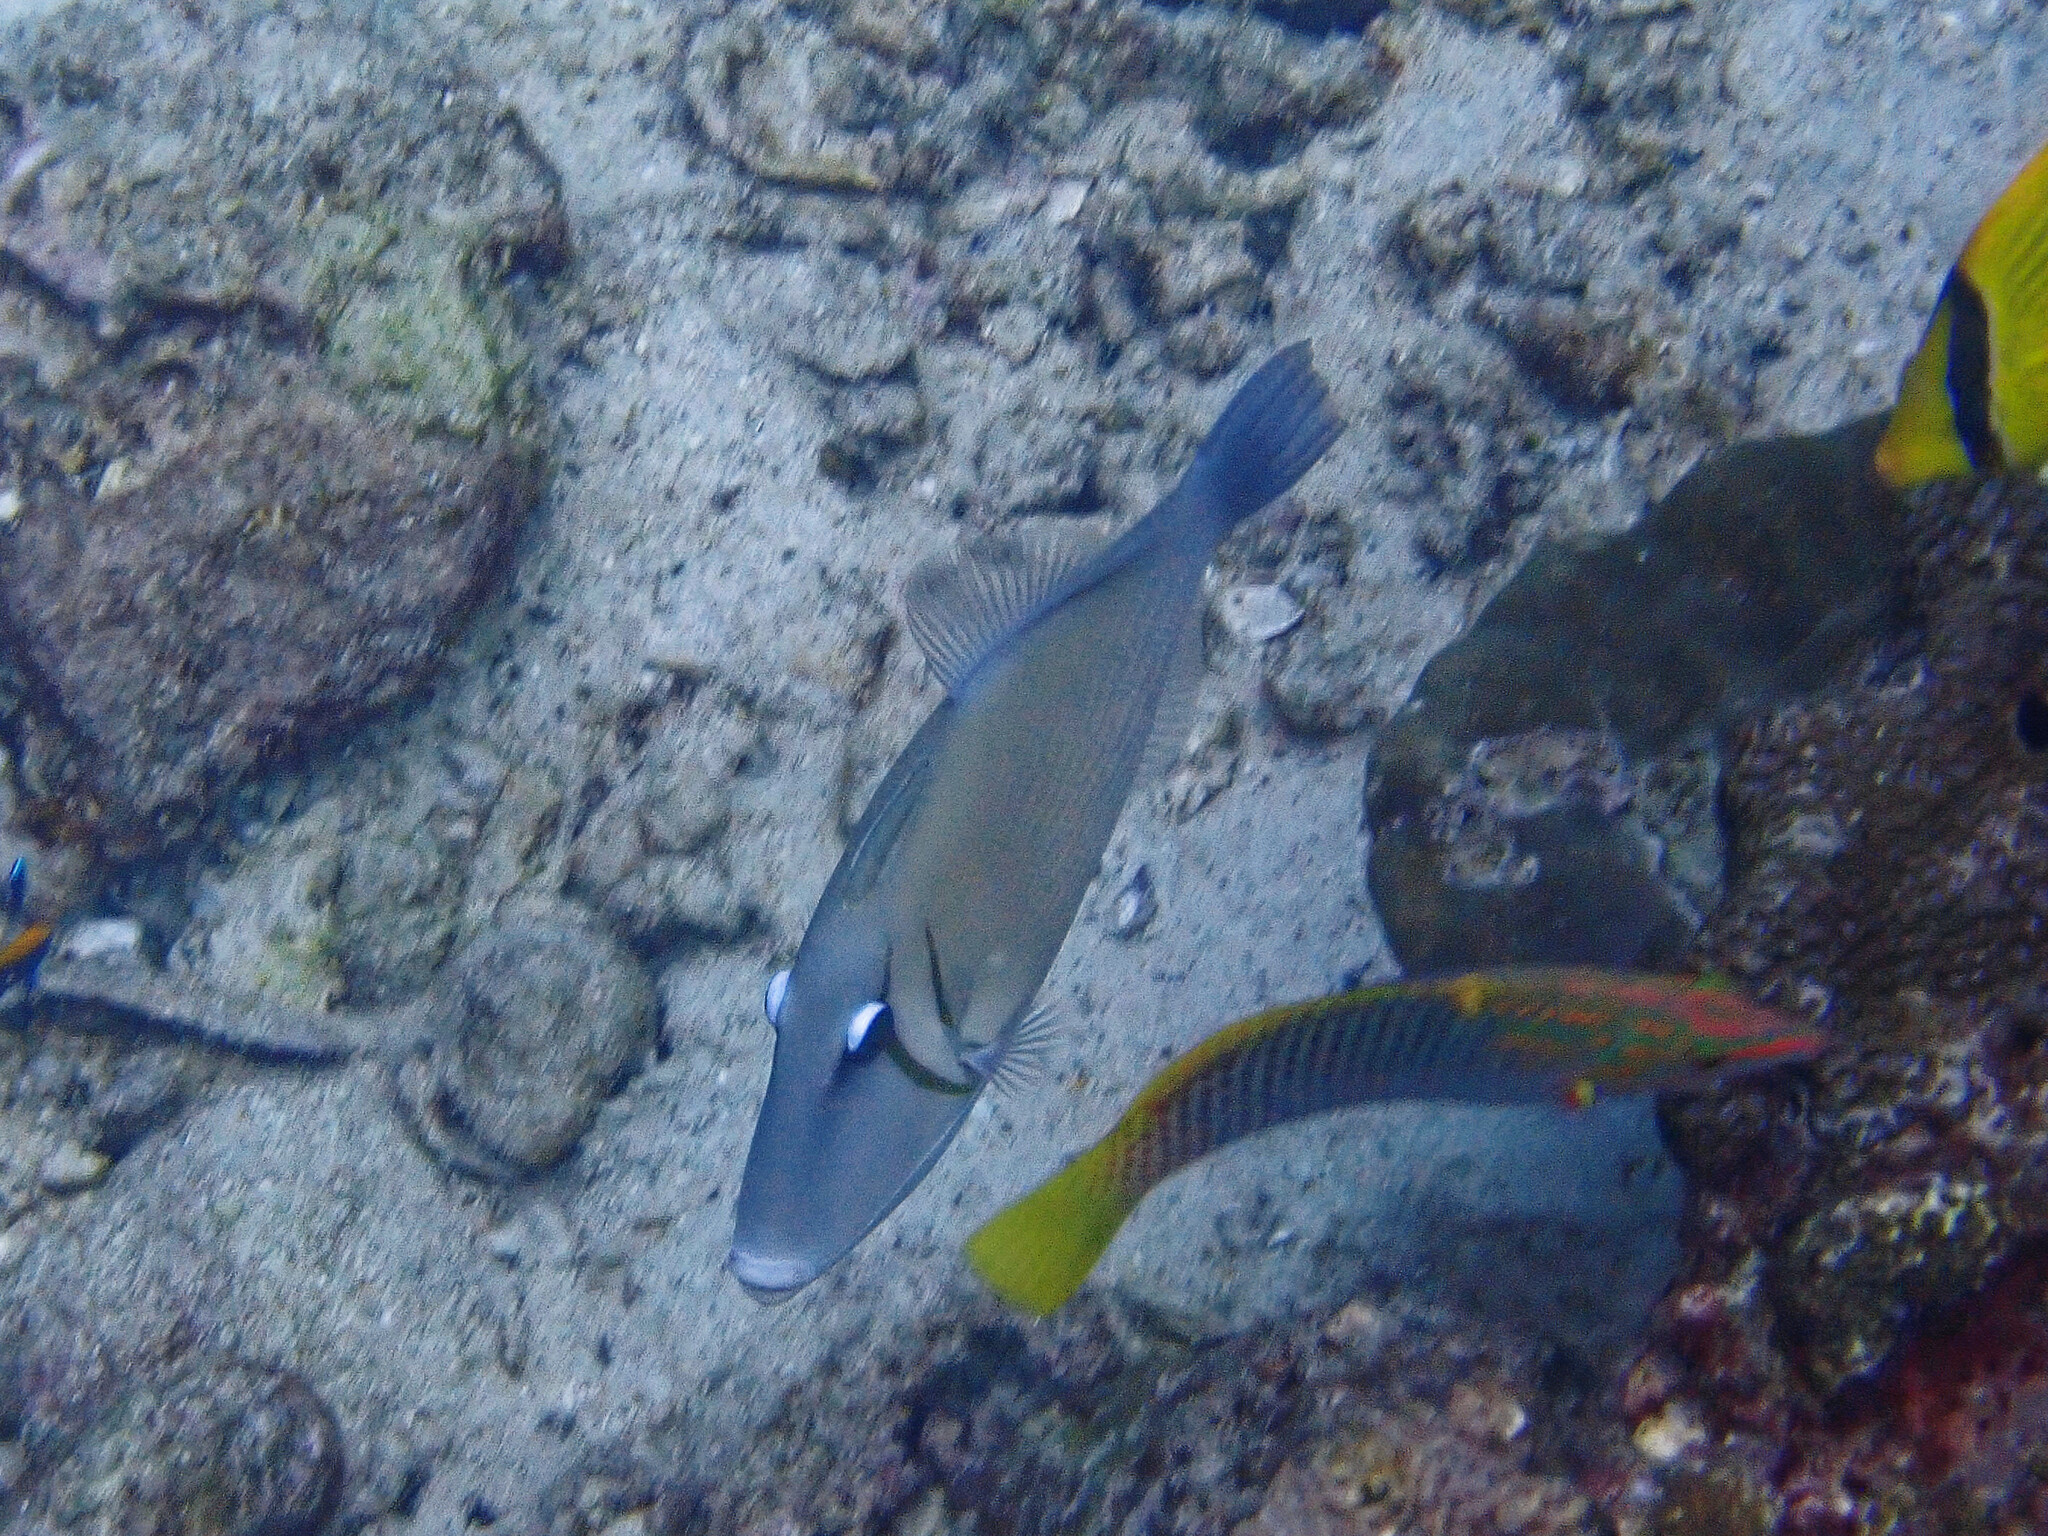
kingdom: Animalia
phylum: Chordata
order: Tetraodontiformes
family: Balistidae
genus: Sufflamen
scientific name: Sufflamen bursa
